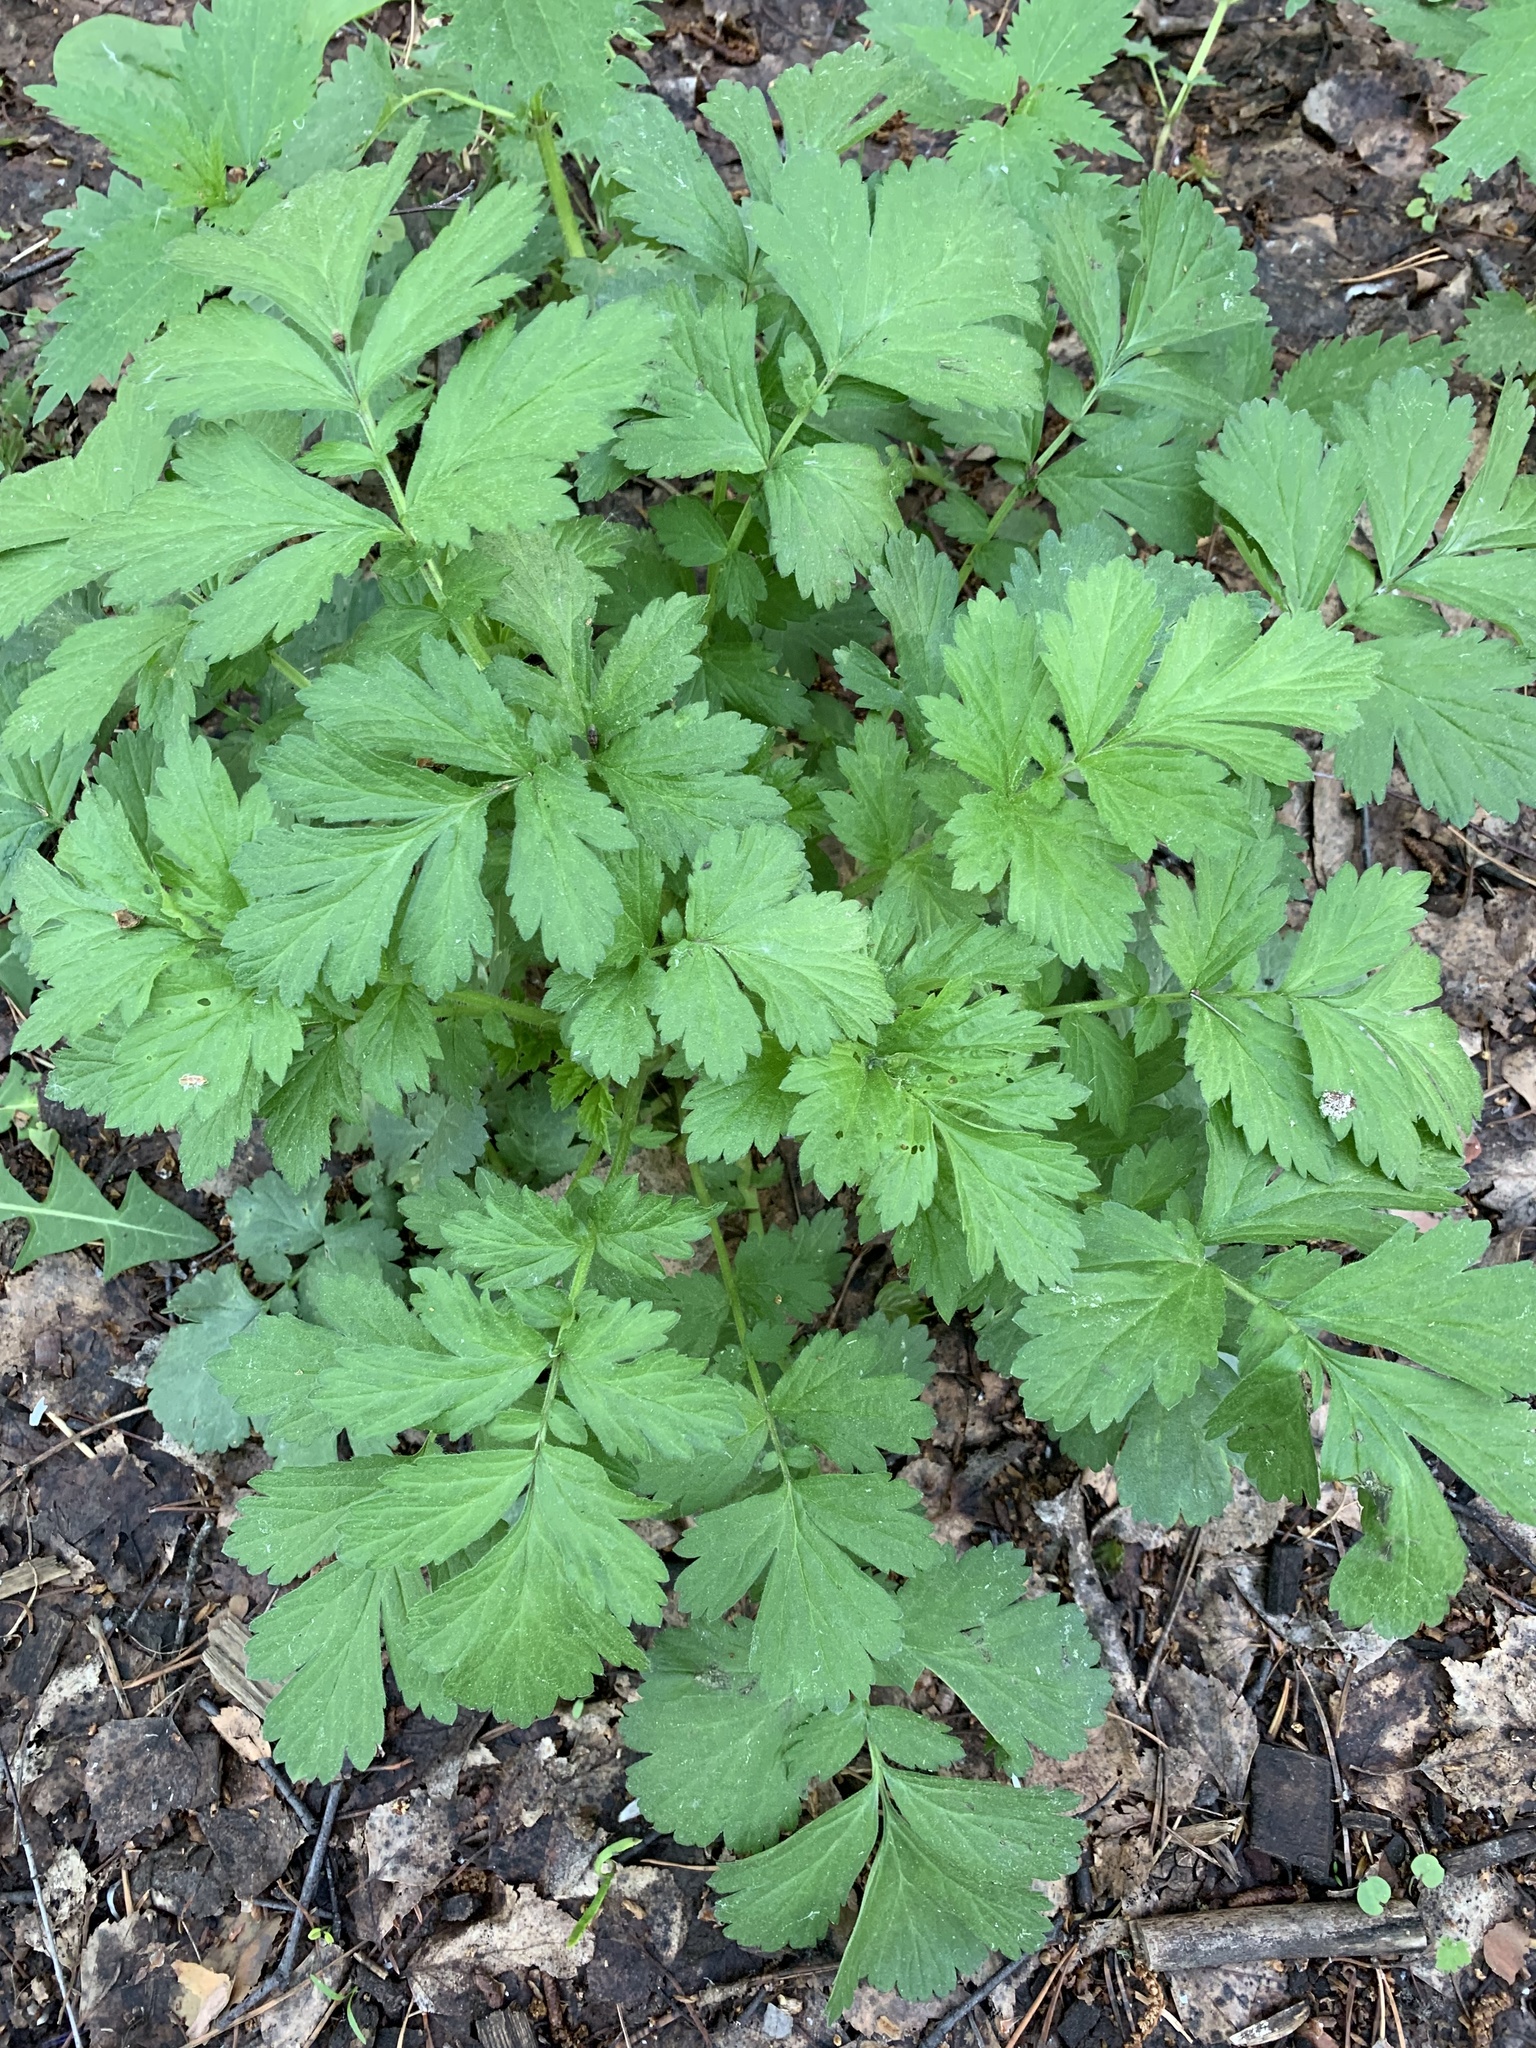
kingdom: Plantae
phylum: Tracheophyta
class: Magnoliopsida
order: Rosales
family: Rosaceae
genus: Geum
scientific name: Geum aleppicum
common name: Yellow avens
